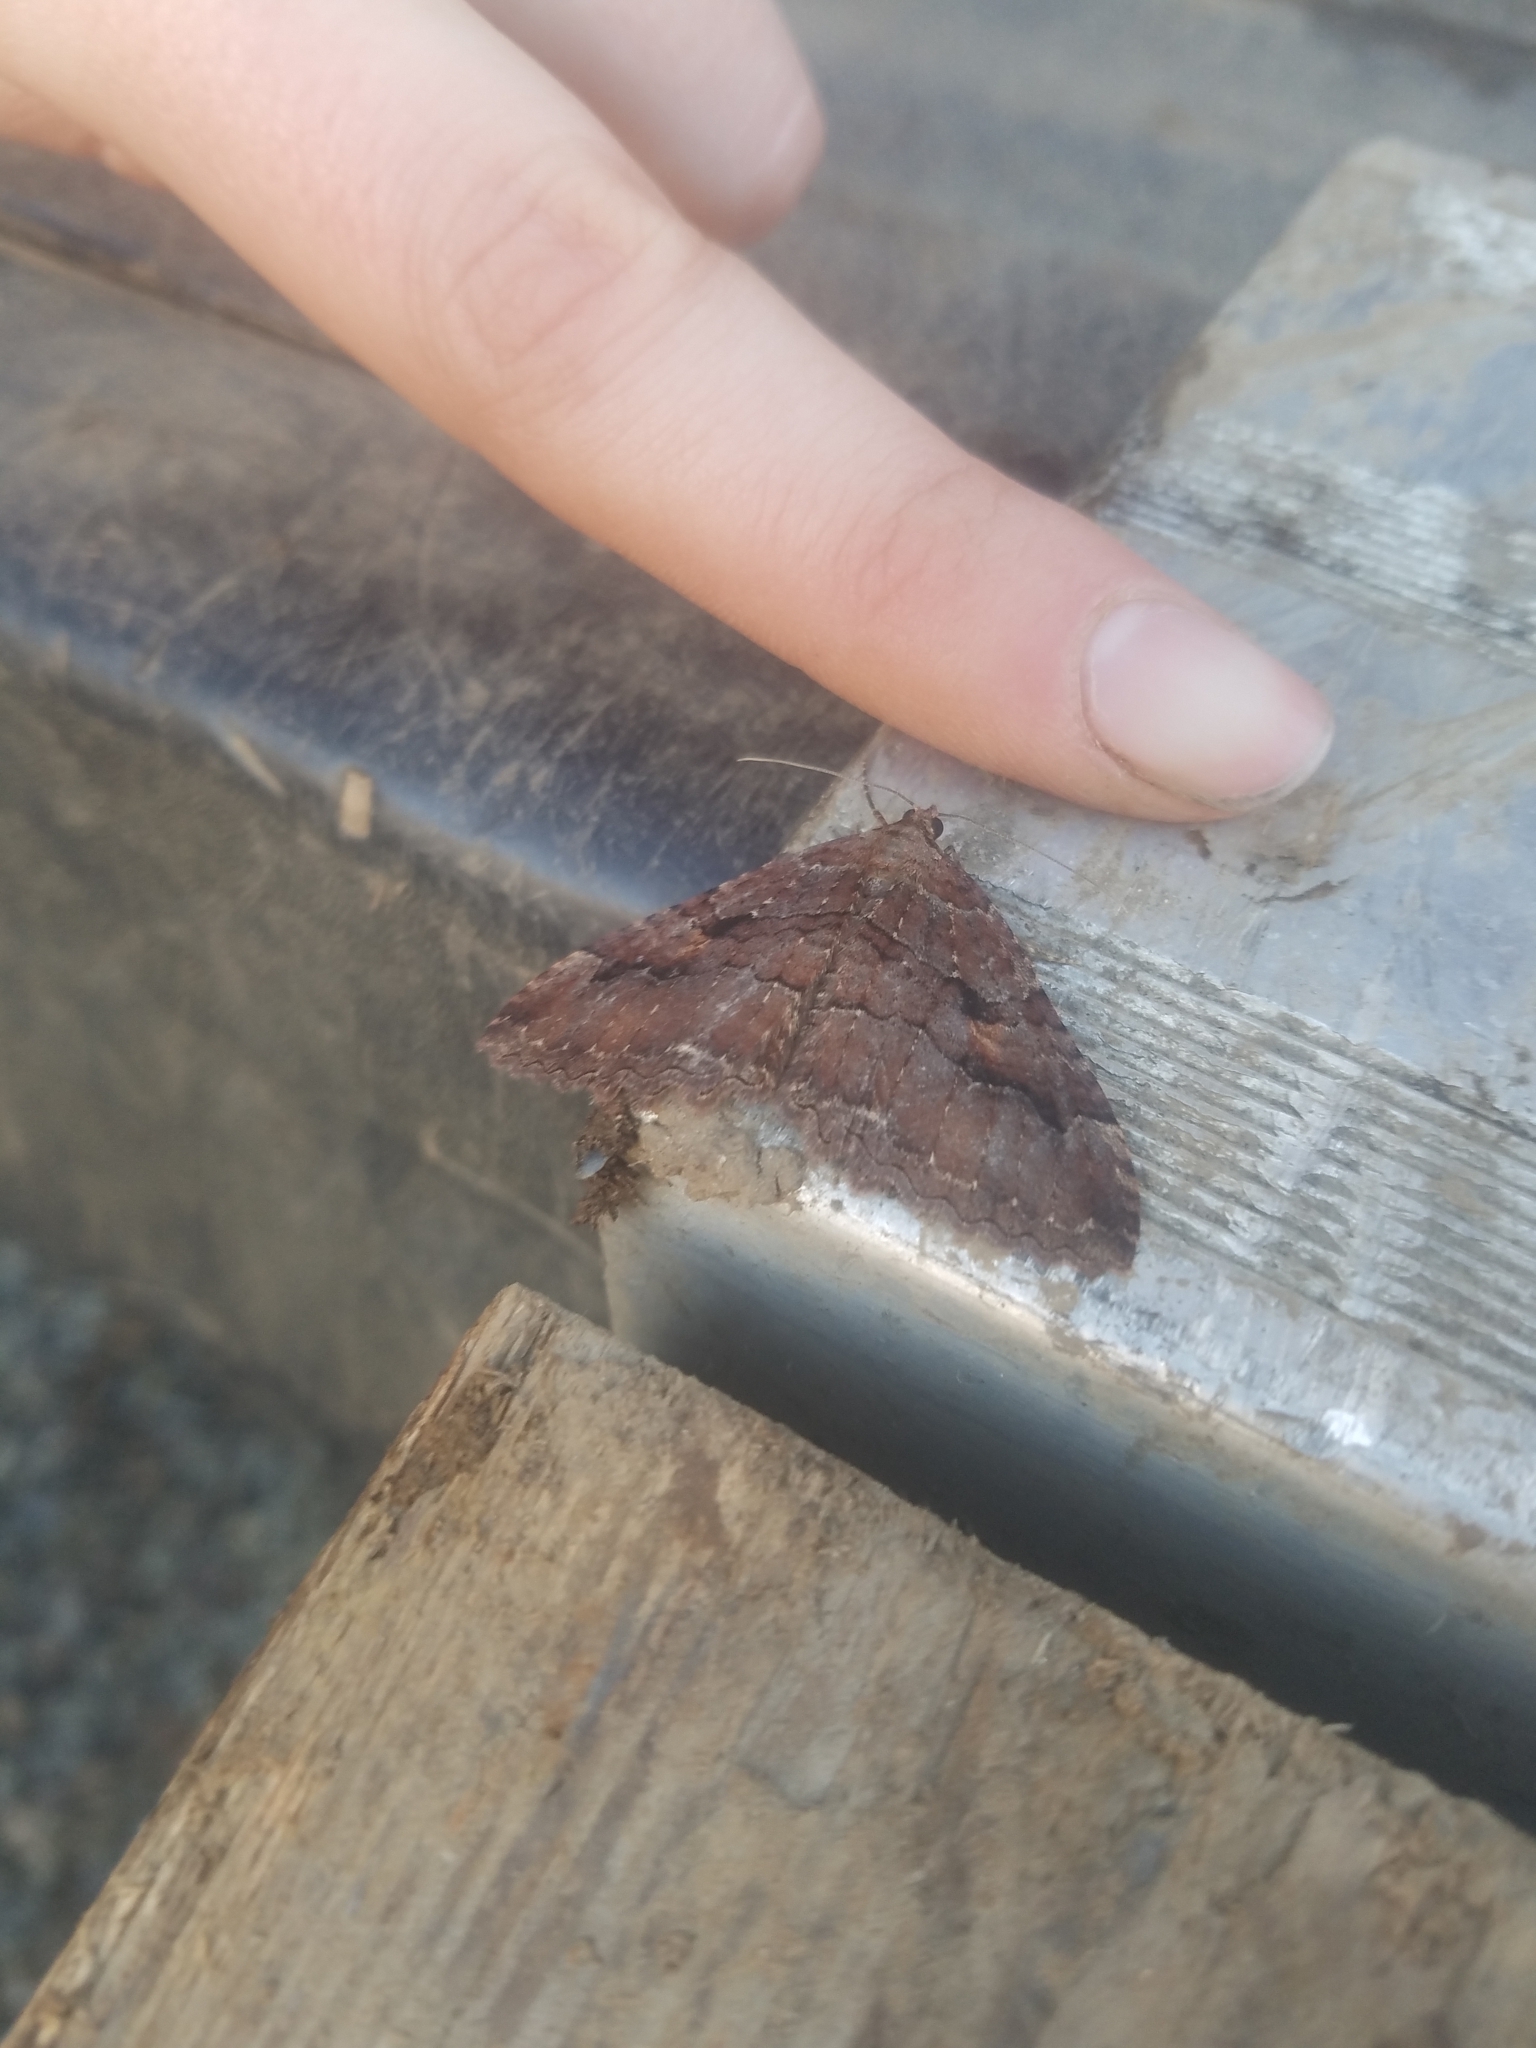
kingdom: Animalia
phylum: Arthropoda
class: Insecta
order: Lepidoptera
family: Geometridae
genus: Triphosa
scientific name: Triphosa haesitata
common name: Tissue moth
